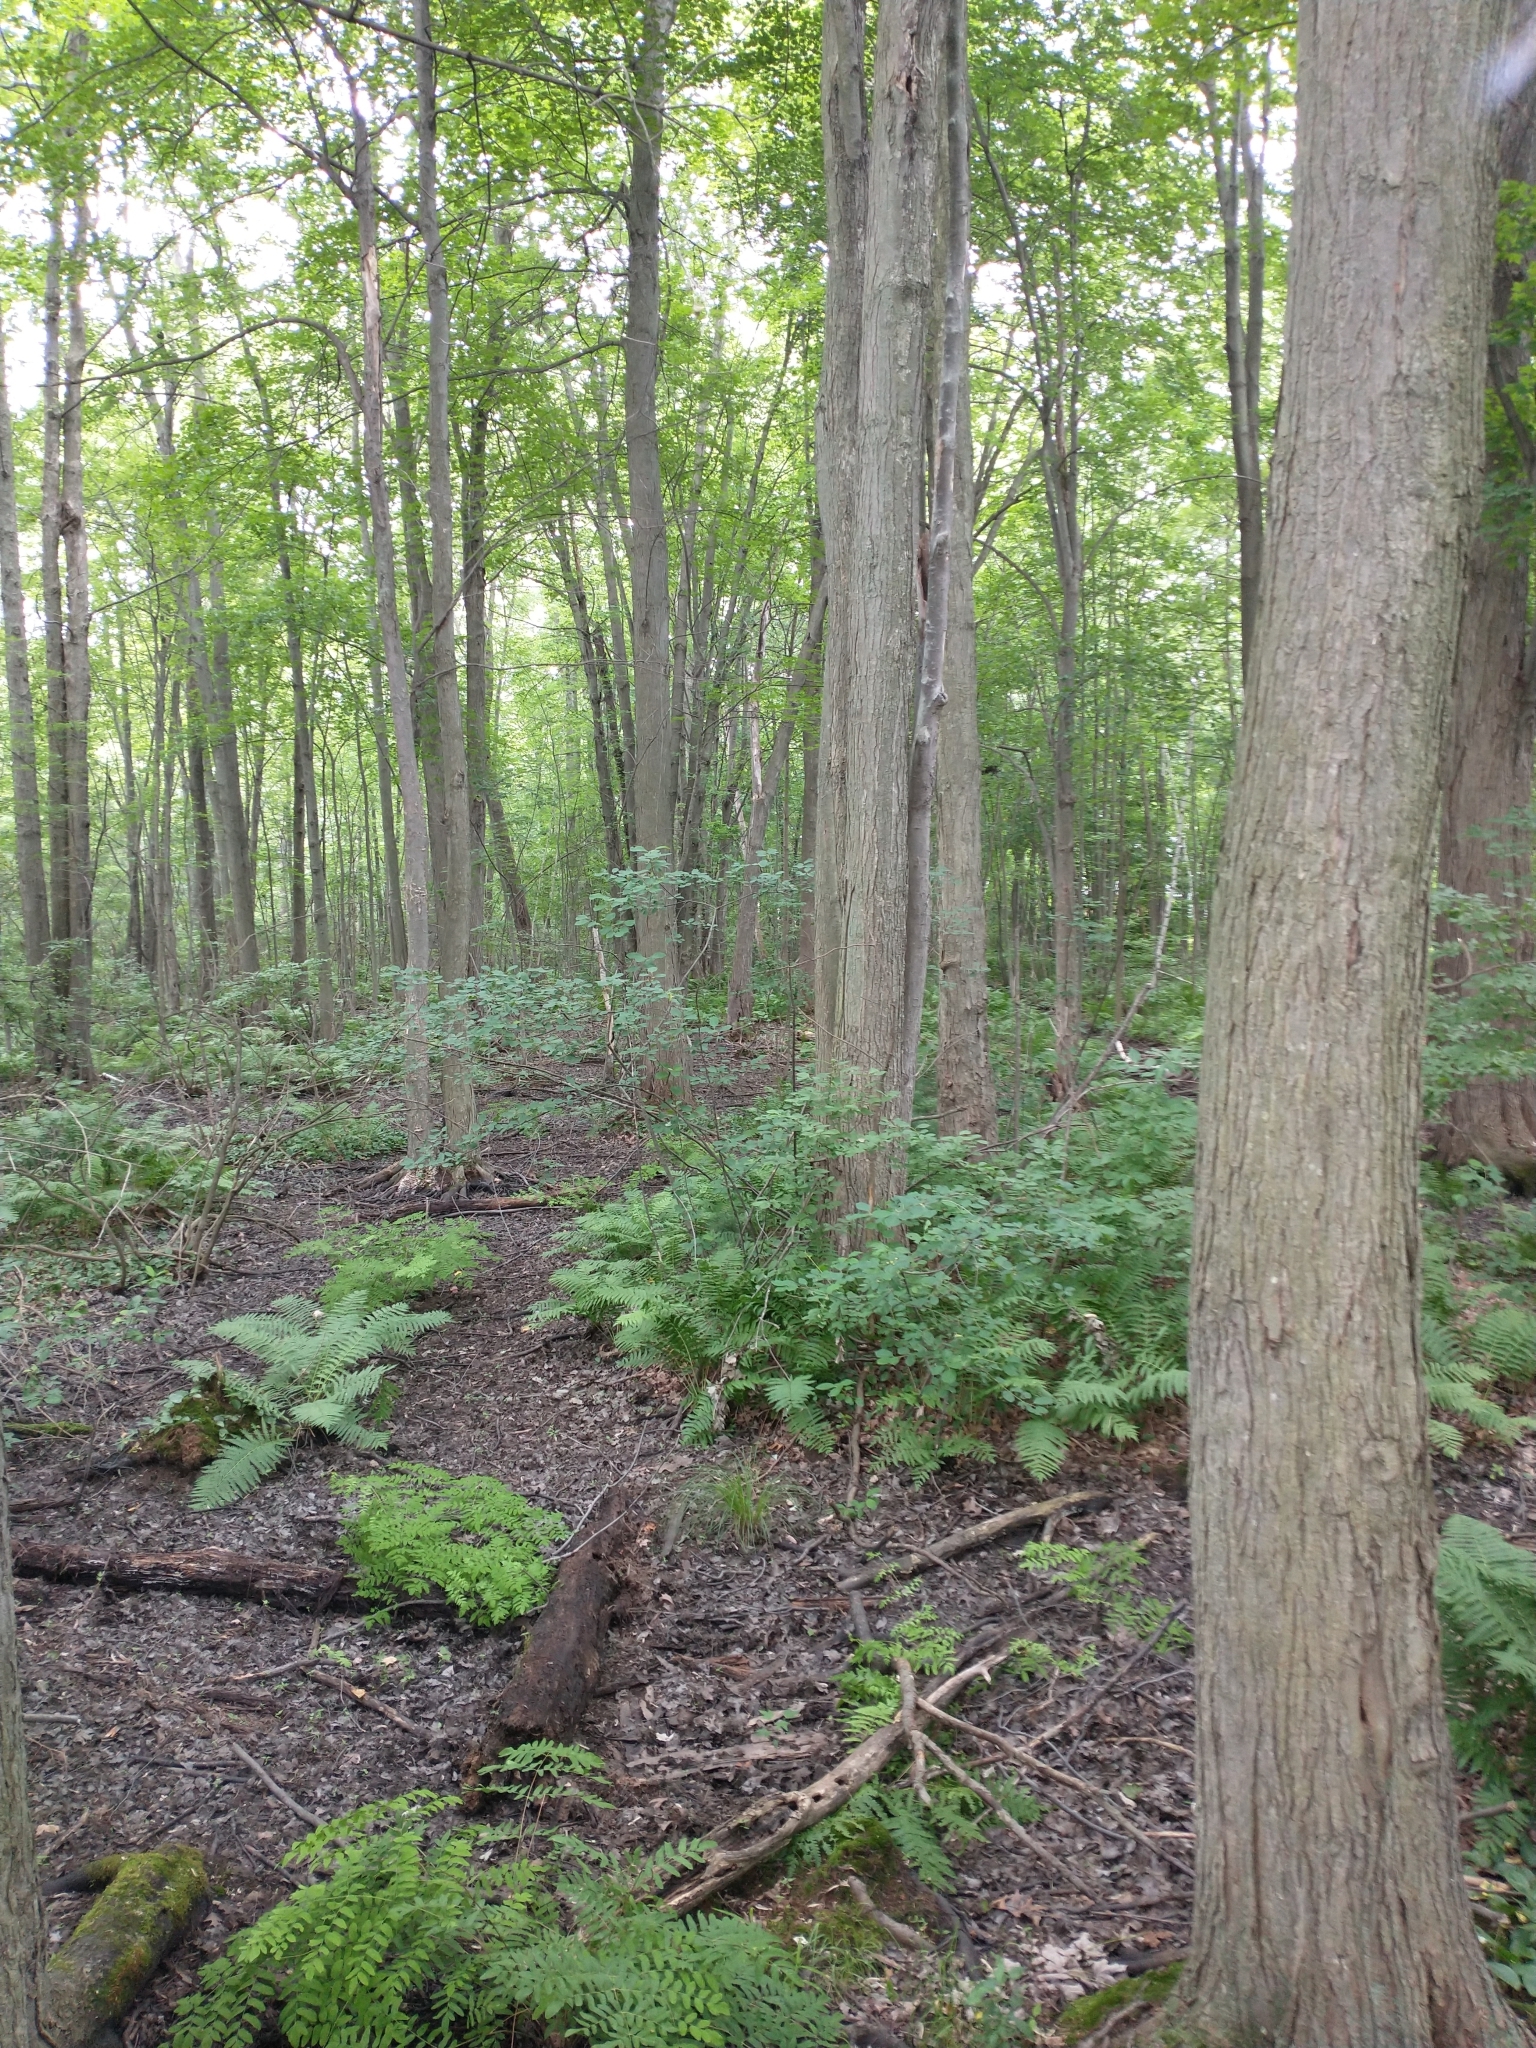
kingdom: Plantae
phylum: Tracheophyta
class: Magnoliopsida
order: Sapindales
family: Sapindaceae
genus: Acer
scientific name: Acer rubrum
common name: Red maple
